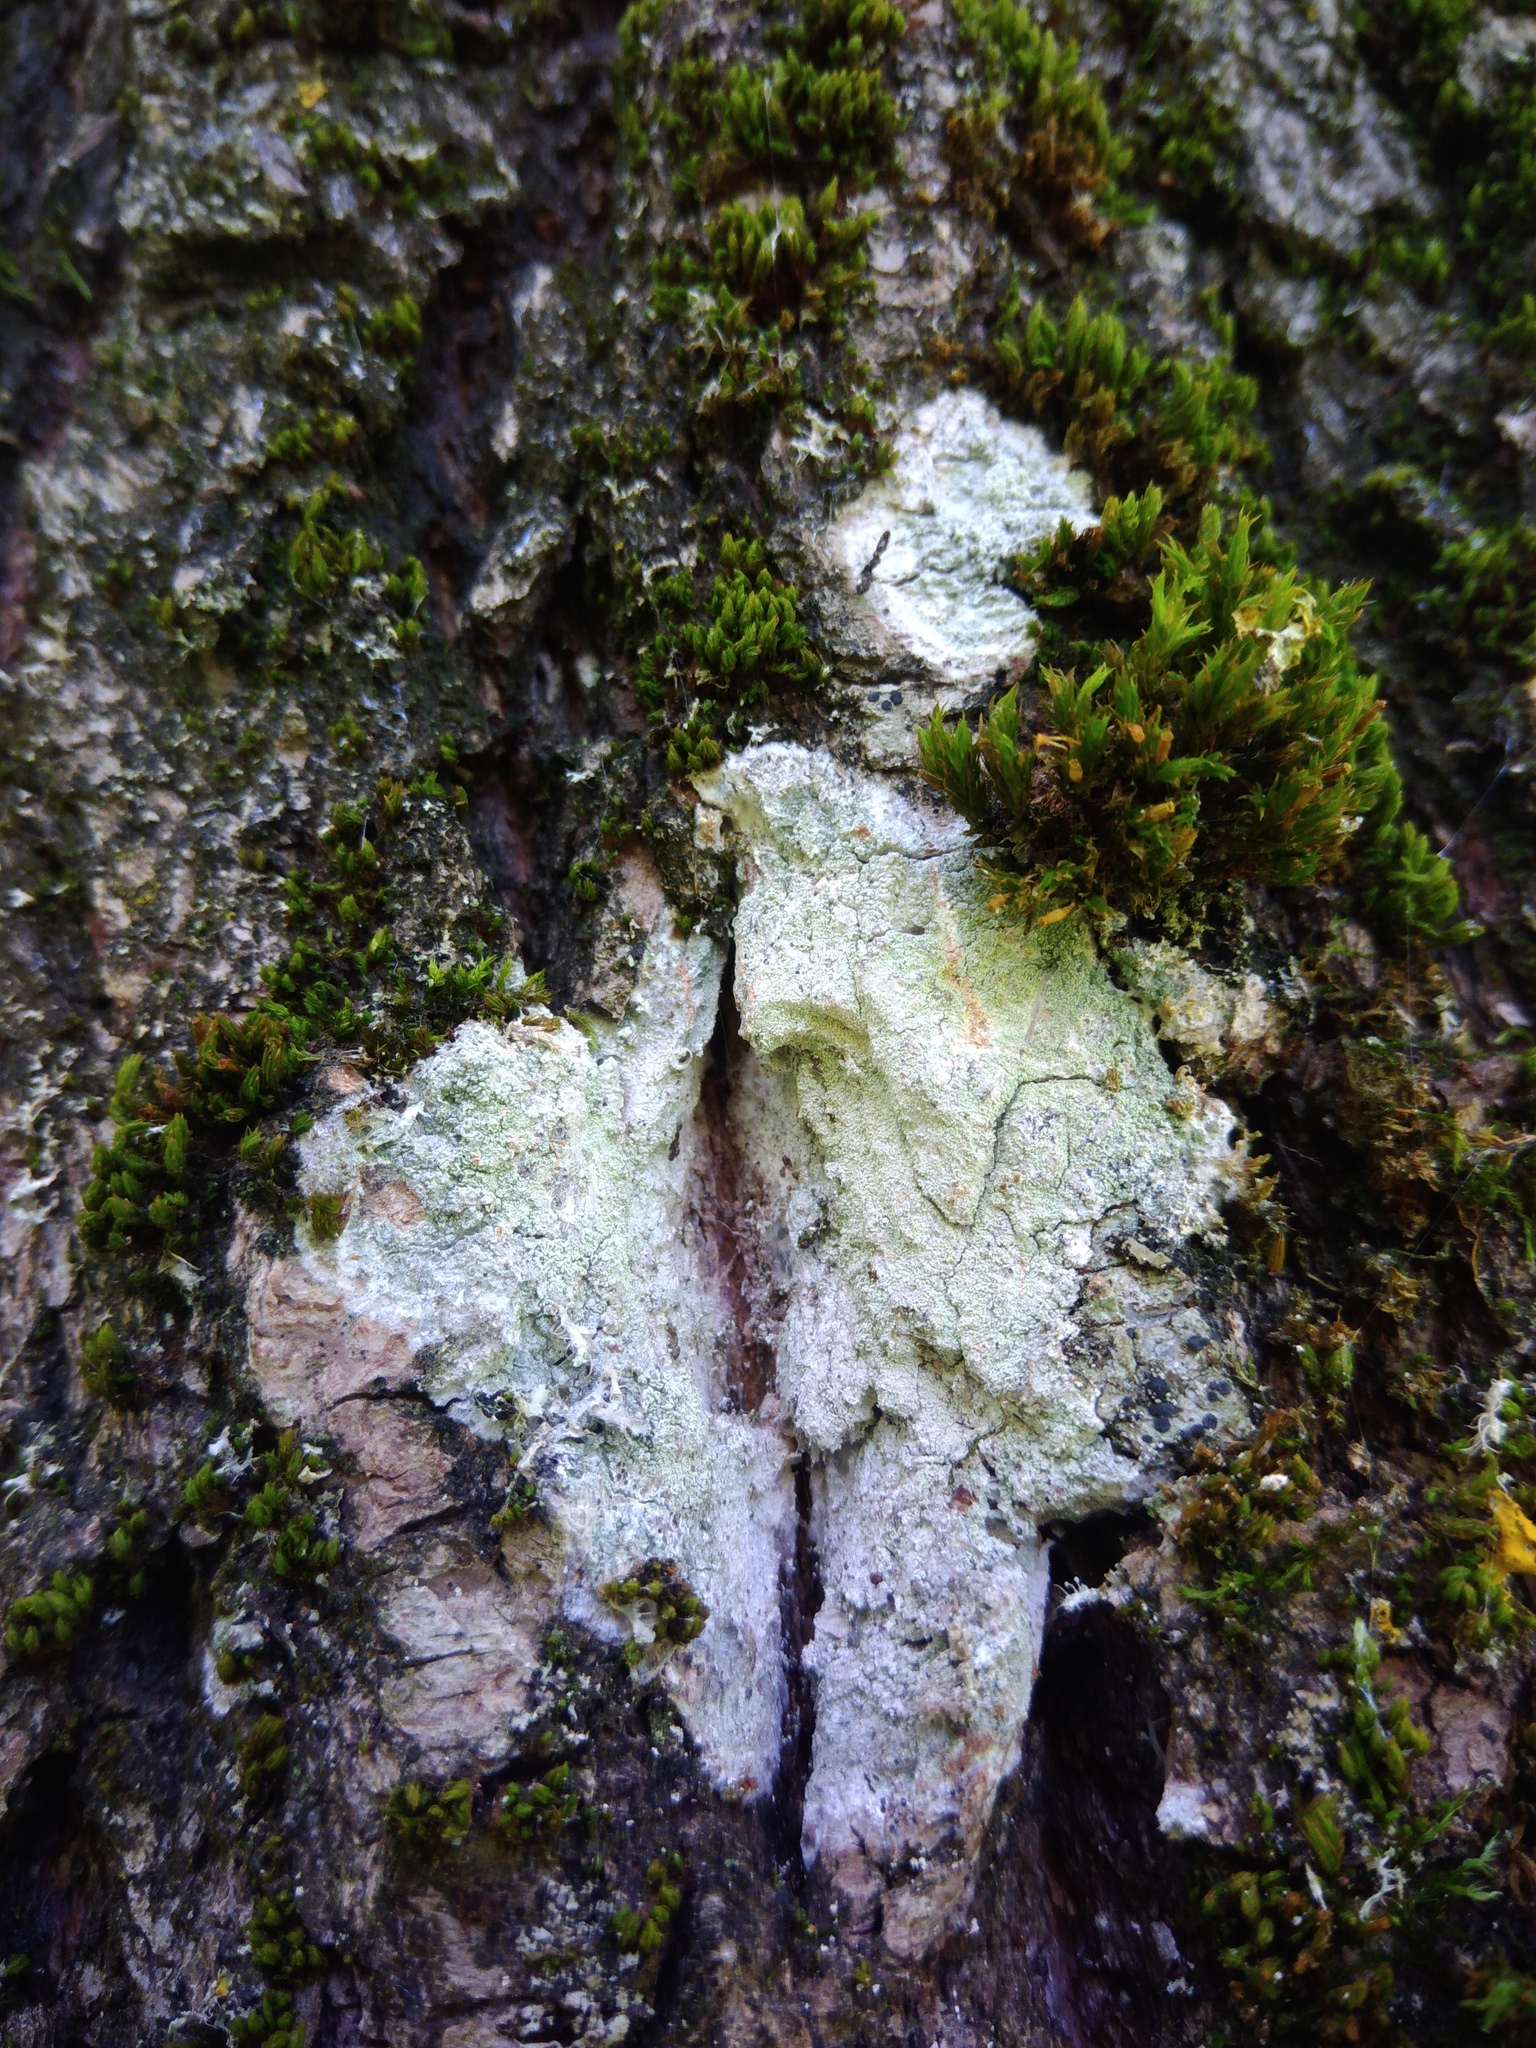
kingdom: Fungi
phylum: Ascomycota
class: Lecanoromycetes
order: Ostropales
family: Phlyctidaceae
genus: Phlyctis
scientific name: Phlyctis argena
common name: Whitewash lichen
